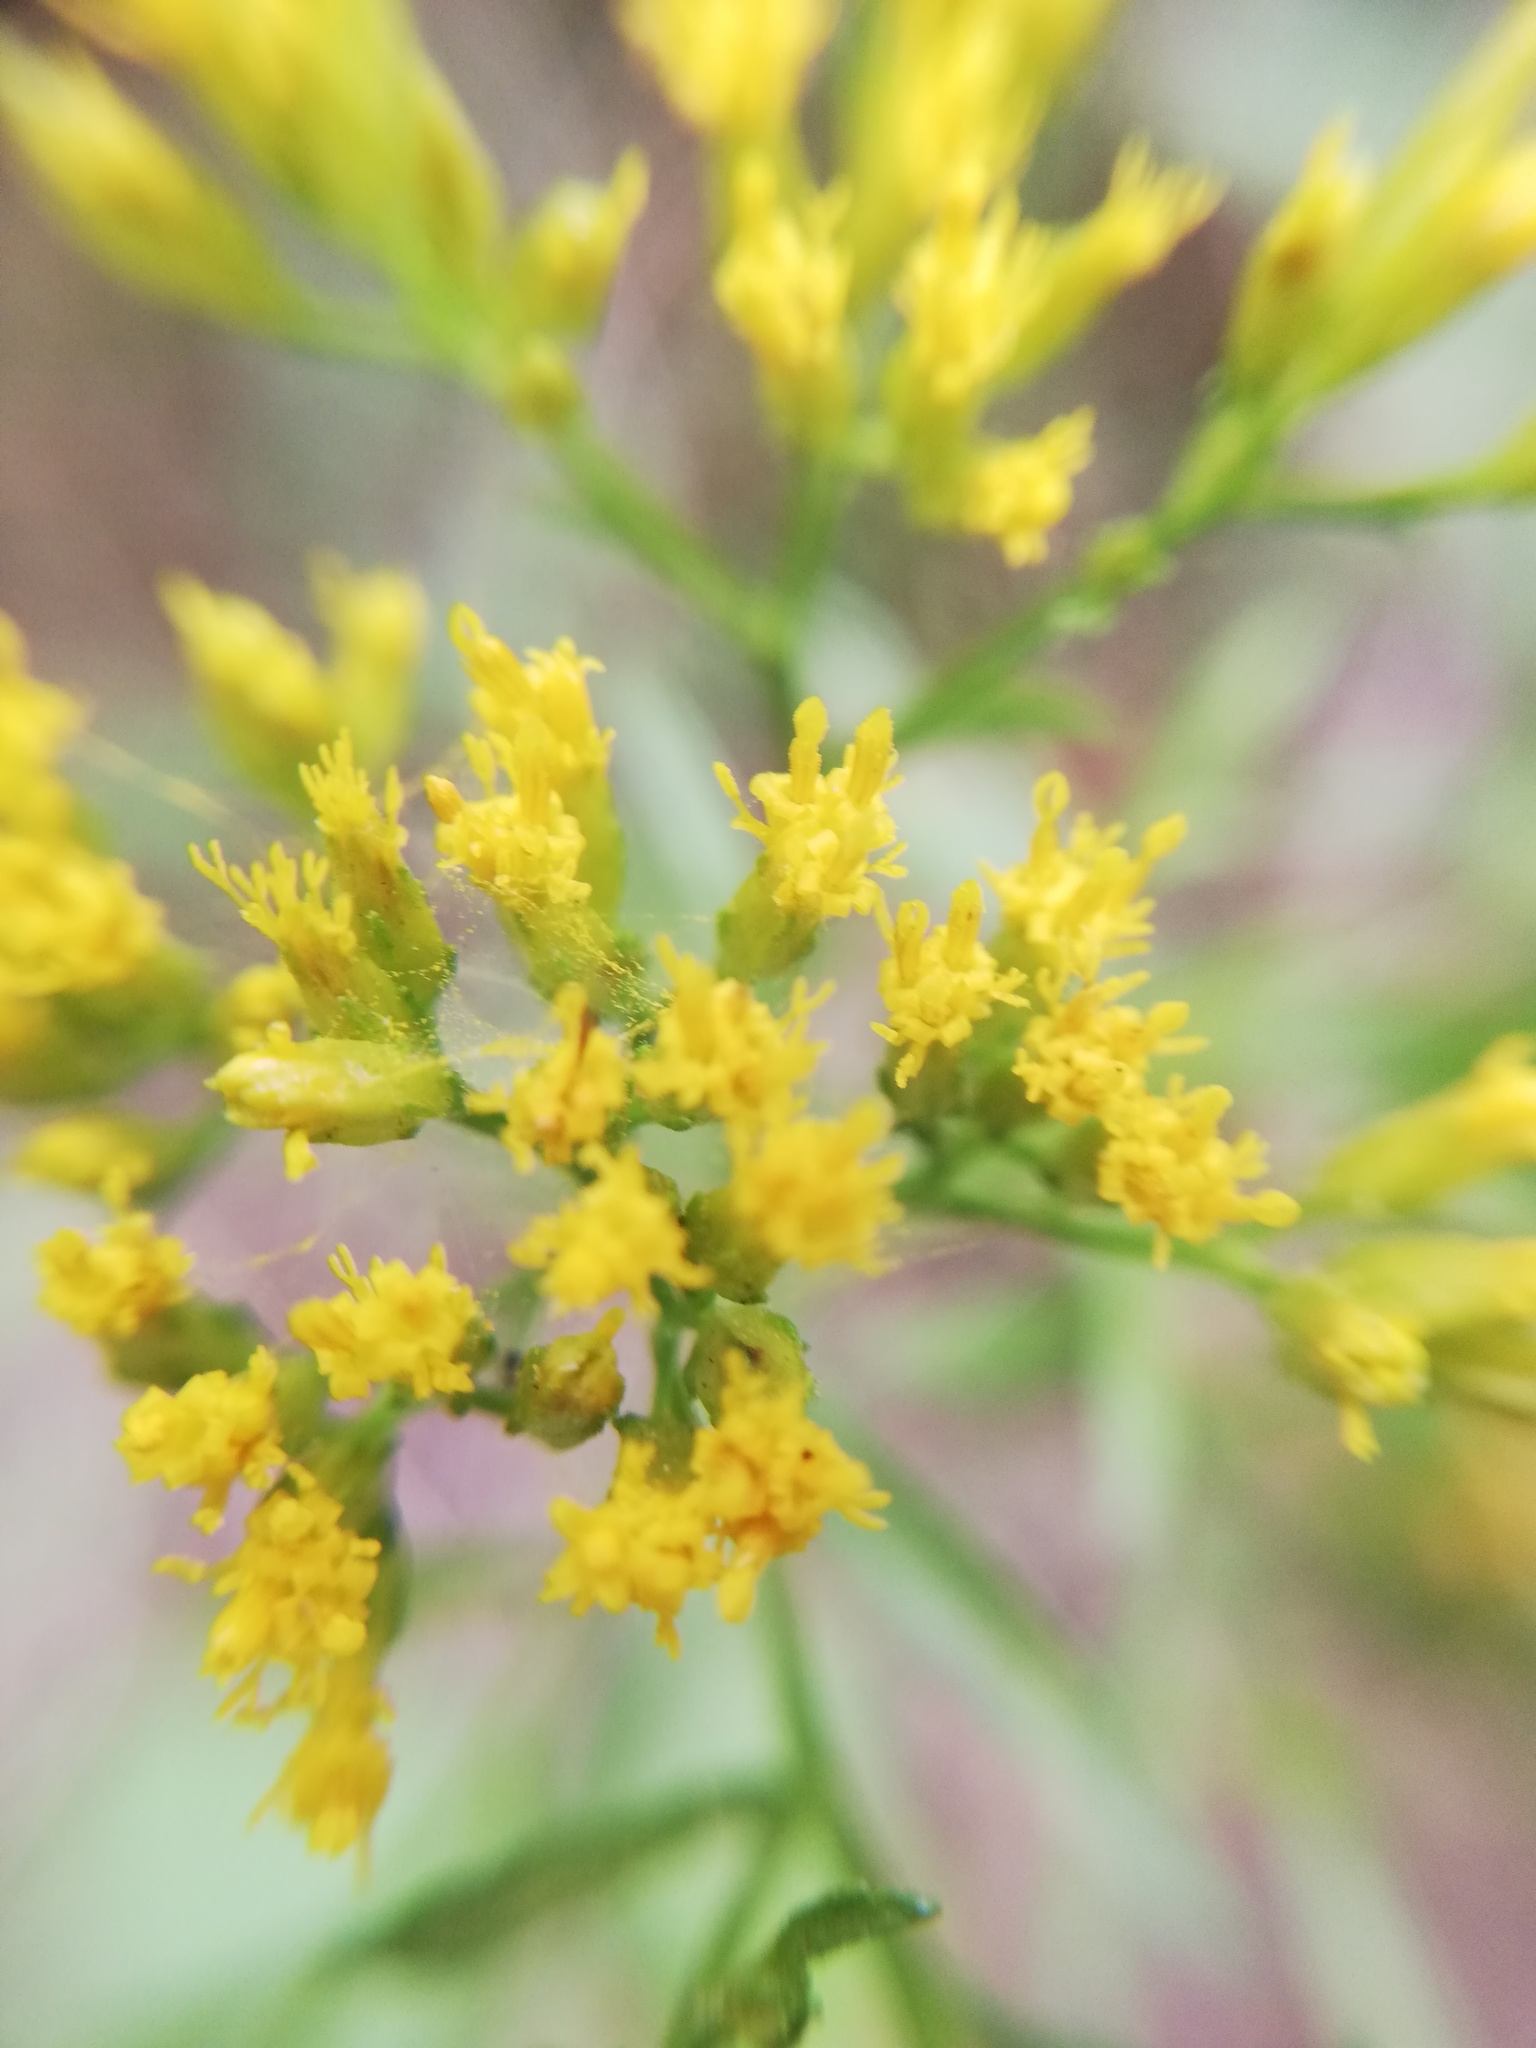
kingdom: Plantae
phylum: Tracheophyta
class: Magnoliopsida
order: Asterales
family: Asteraceae
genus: Gymnosperma
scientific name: Gymnosperma glutinosum
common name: Gumhead
